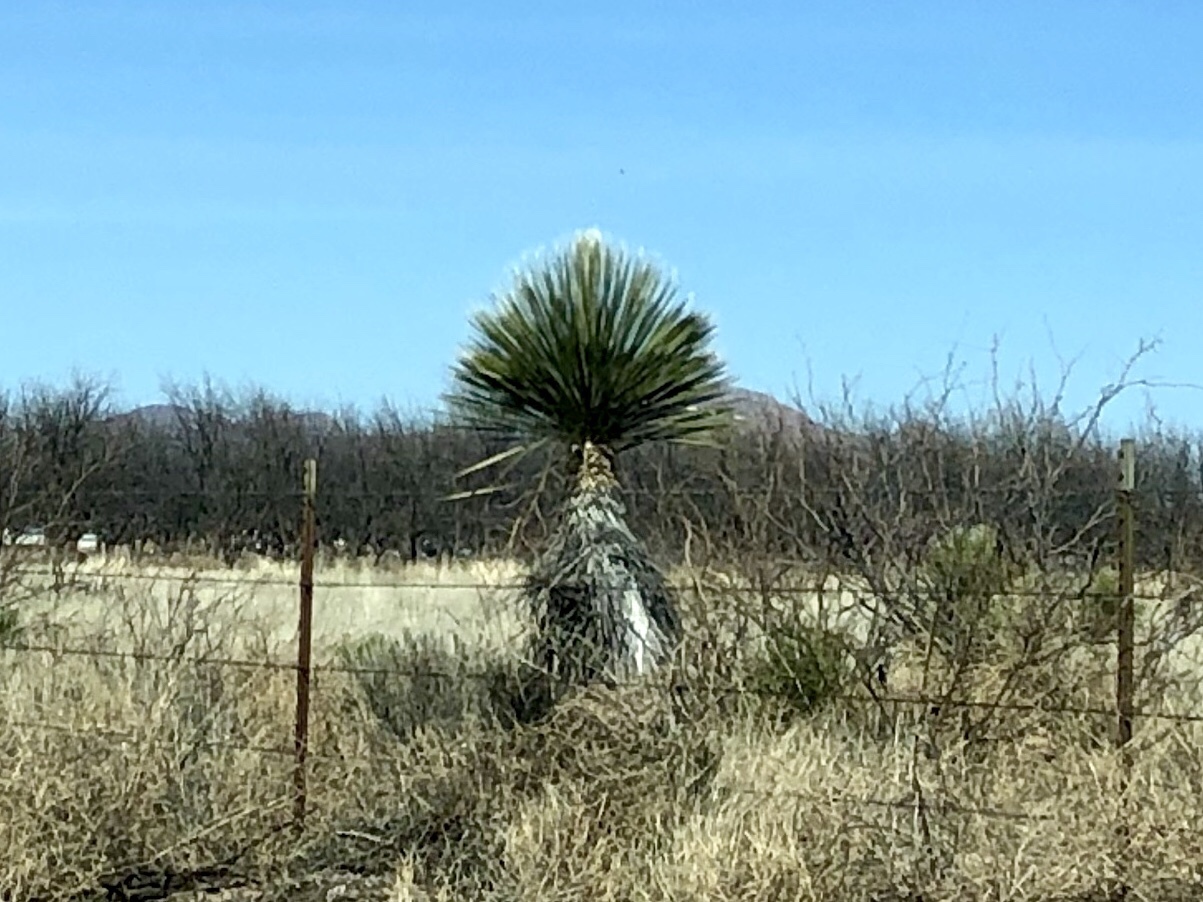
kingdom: Plantae
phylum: Tracheophyta
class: Liliopsida
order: Asparagales
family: Asparagaceae
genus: Yucca
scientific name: Yucca elata
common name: Palmella
